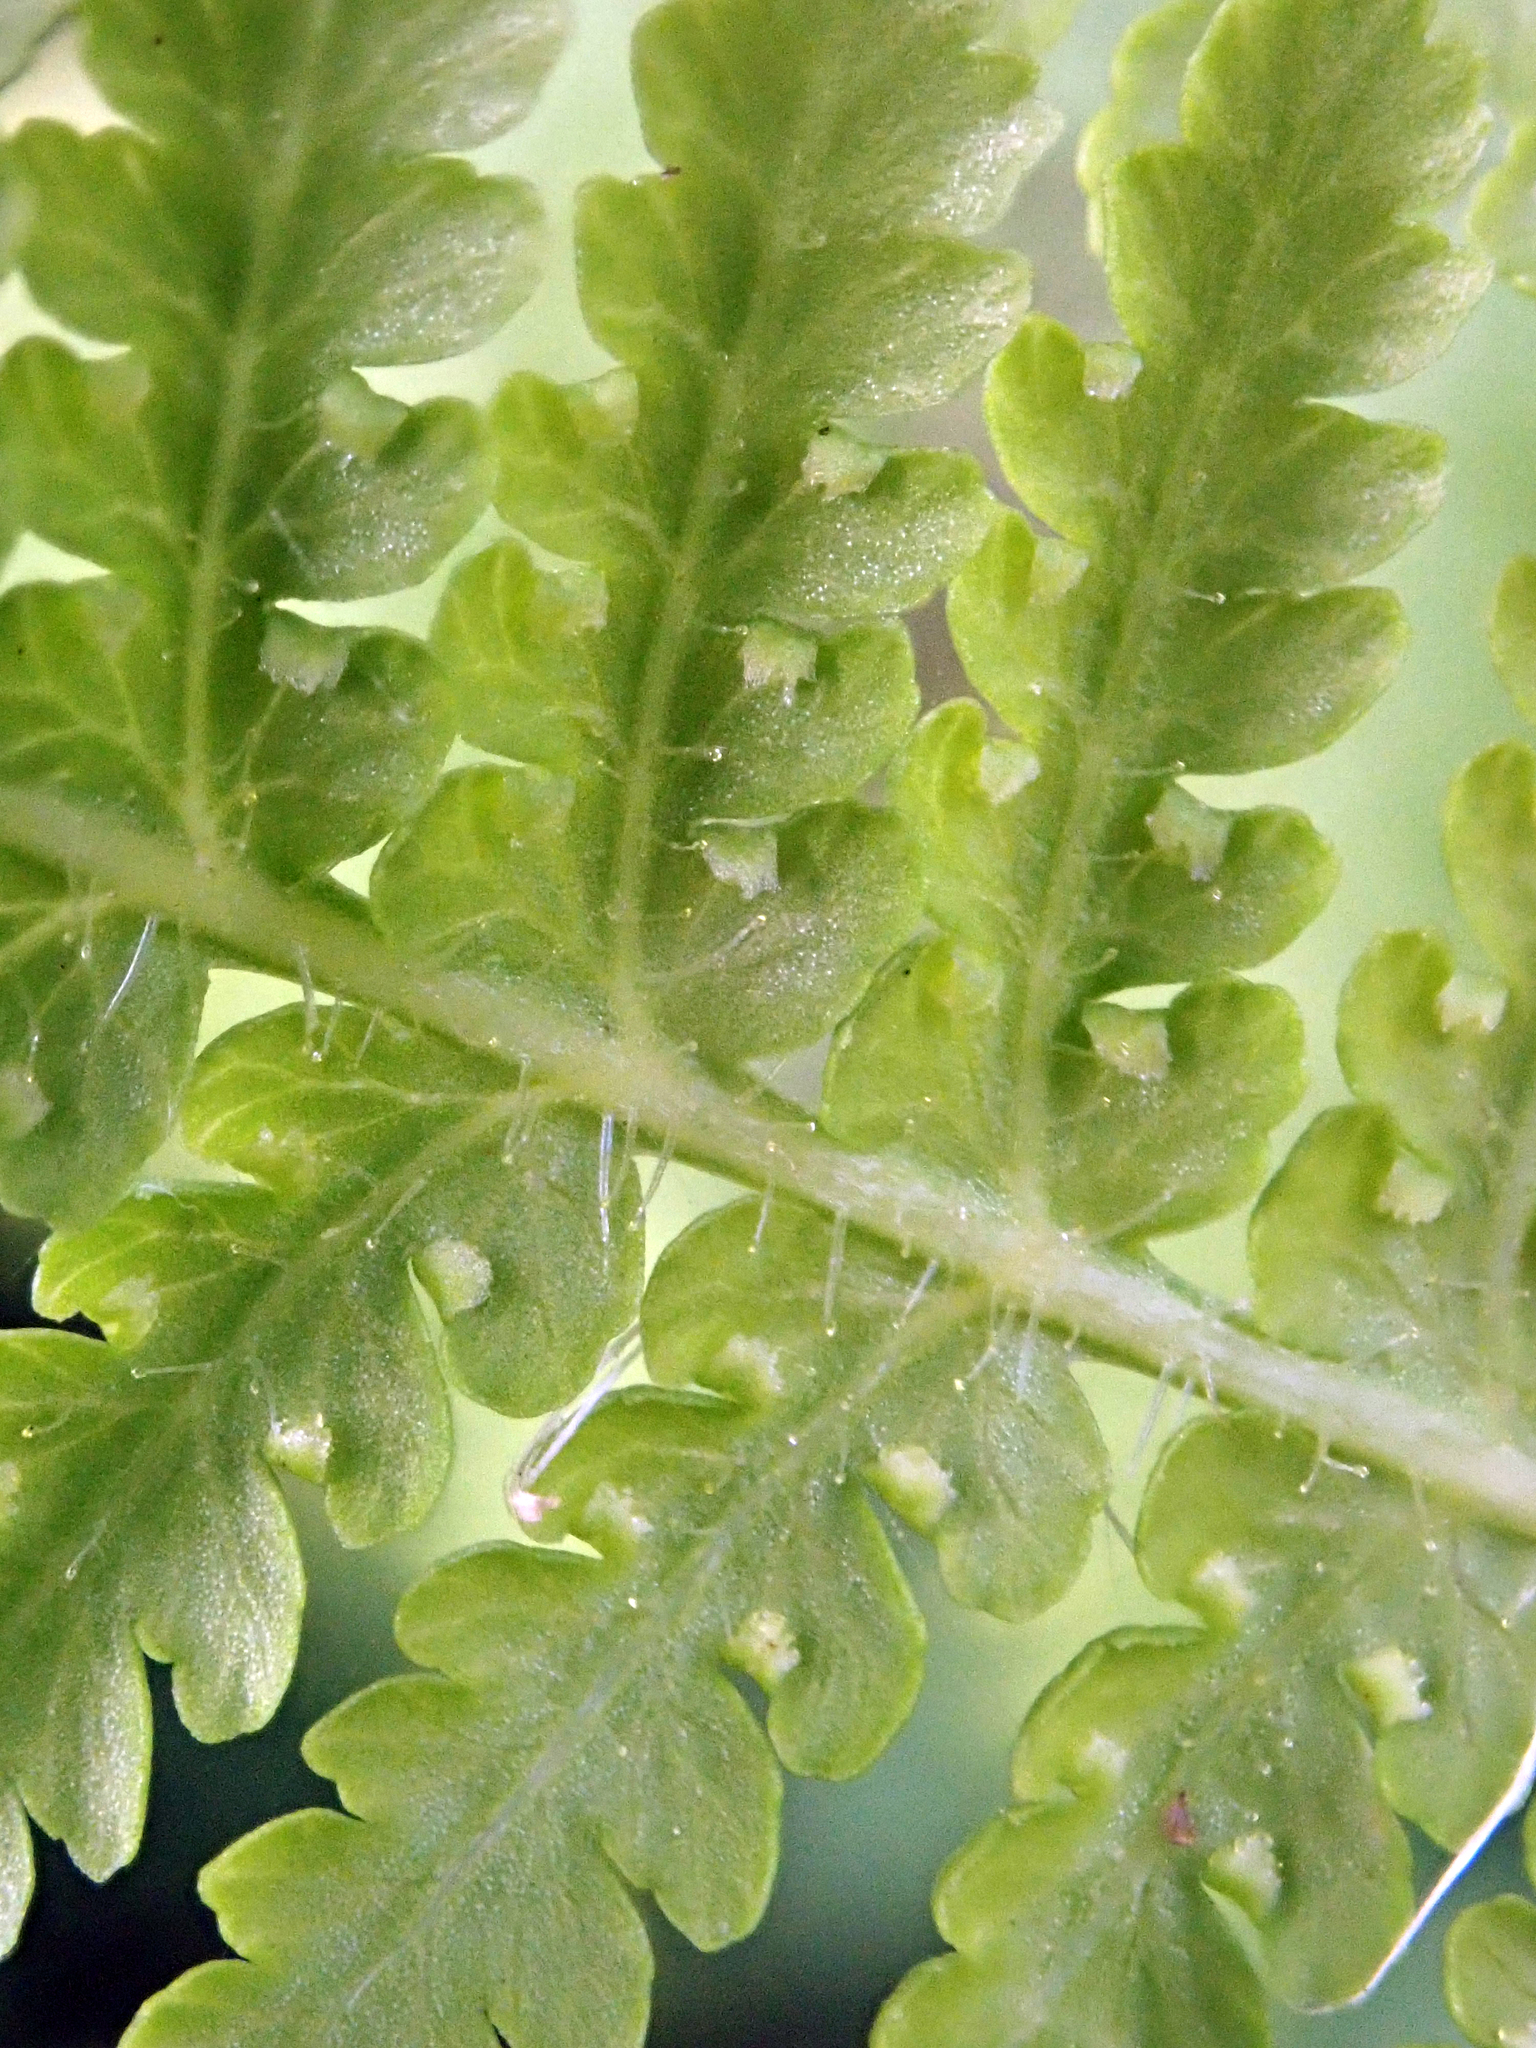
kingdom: Plantae
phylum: Tracheophyta
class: Polypodiopsida
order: Polypodiales
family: Dennstaedtiaceae
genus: Hypolepis
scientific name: Hypolepis dicksonioides
